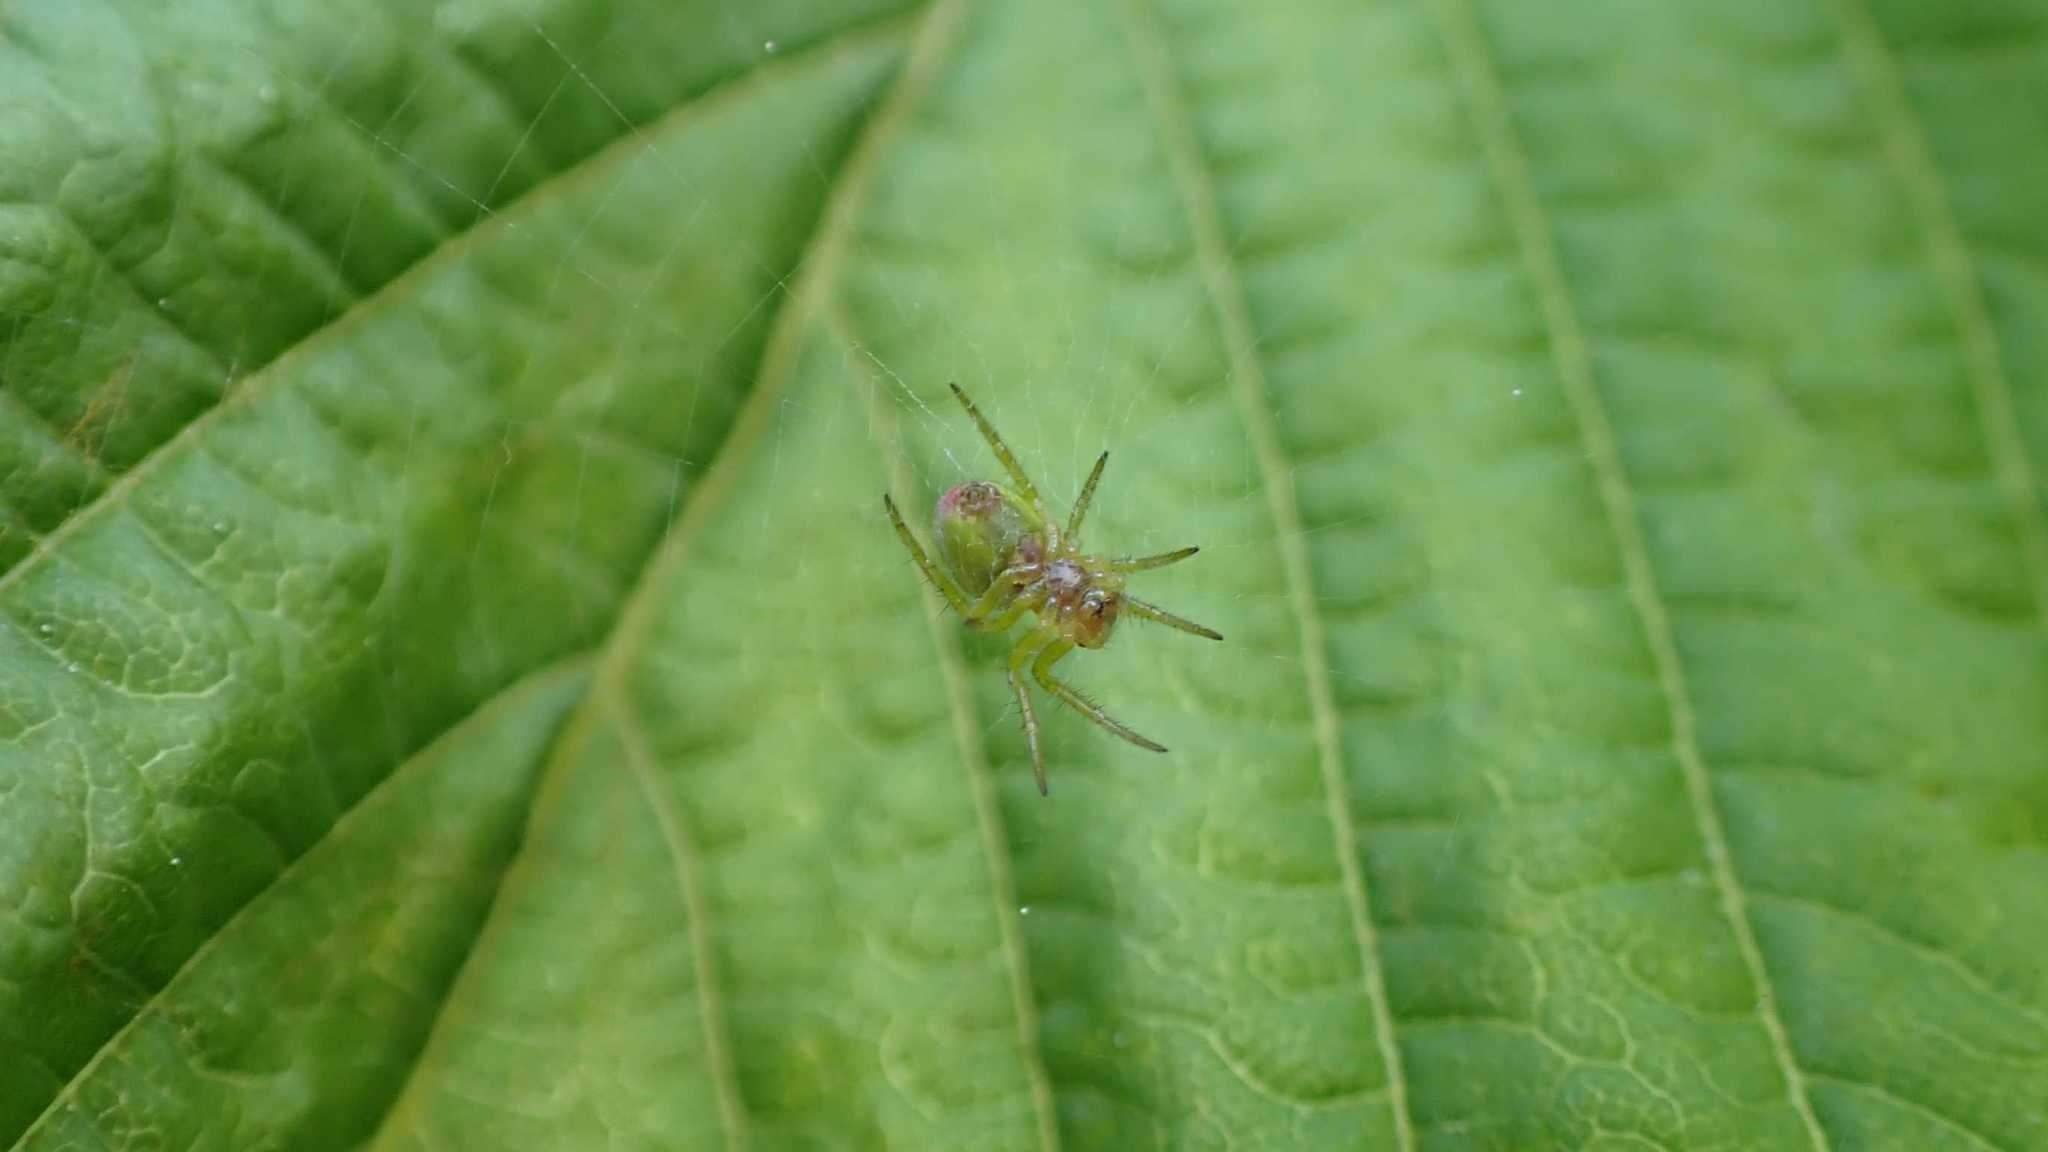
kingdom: Animalia
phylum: Arthropoda
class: Arachnida
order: Araneae
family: Araneidae
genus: Araniella
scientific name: Araniella
